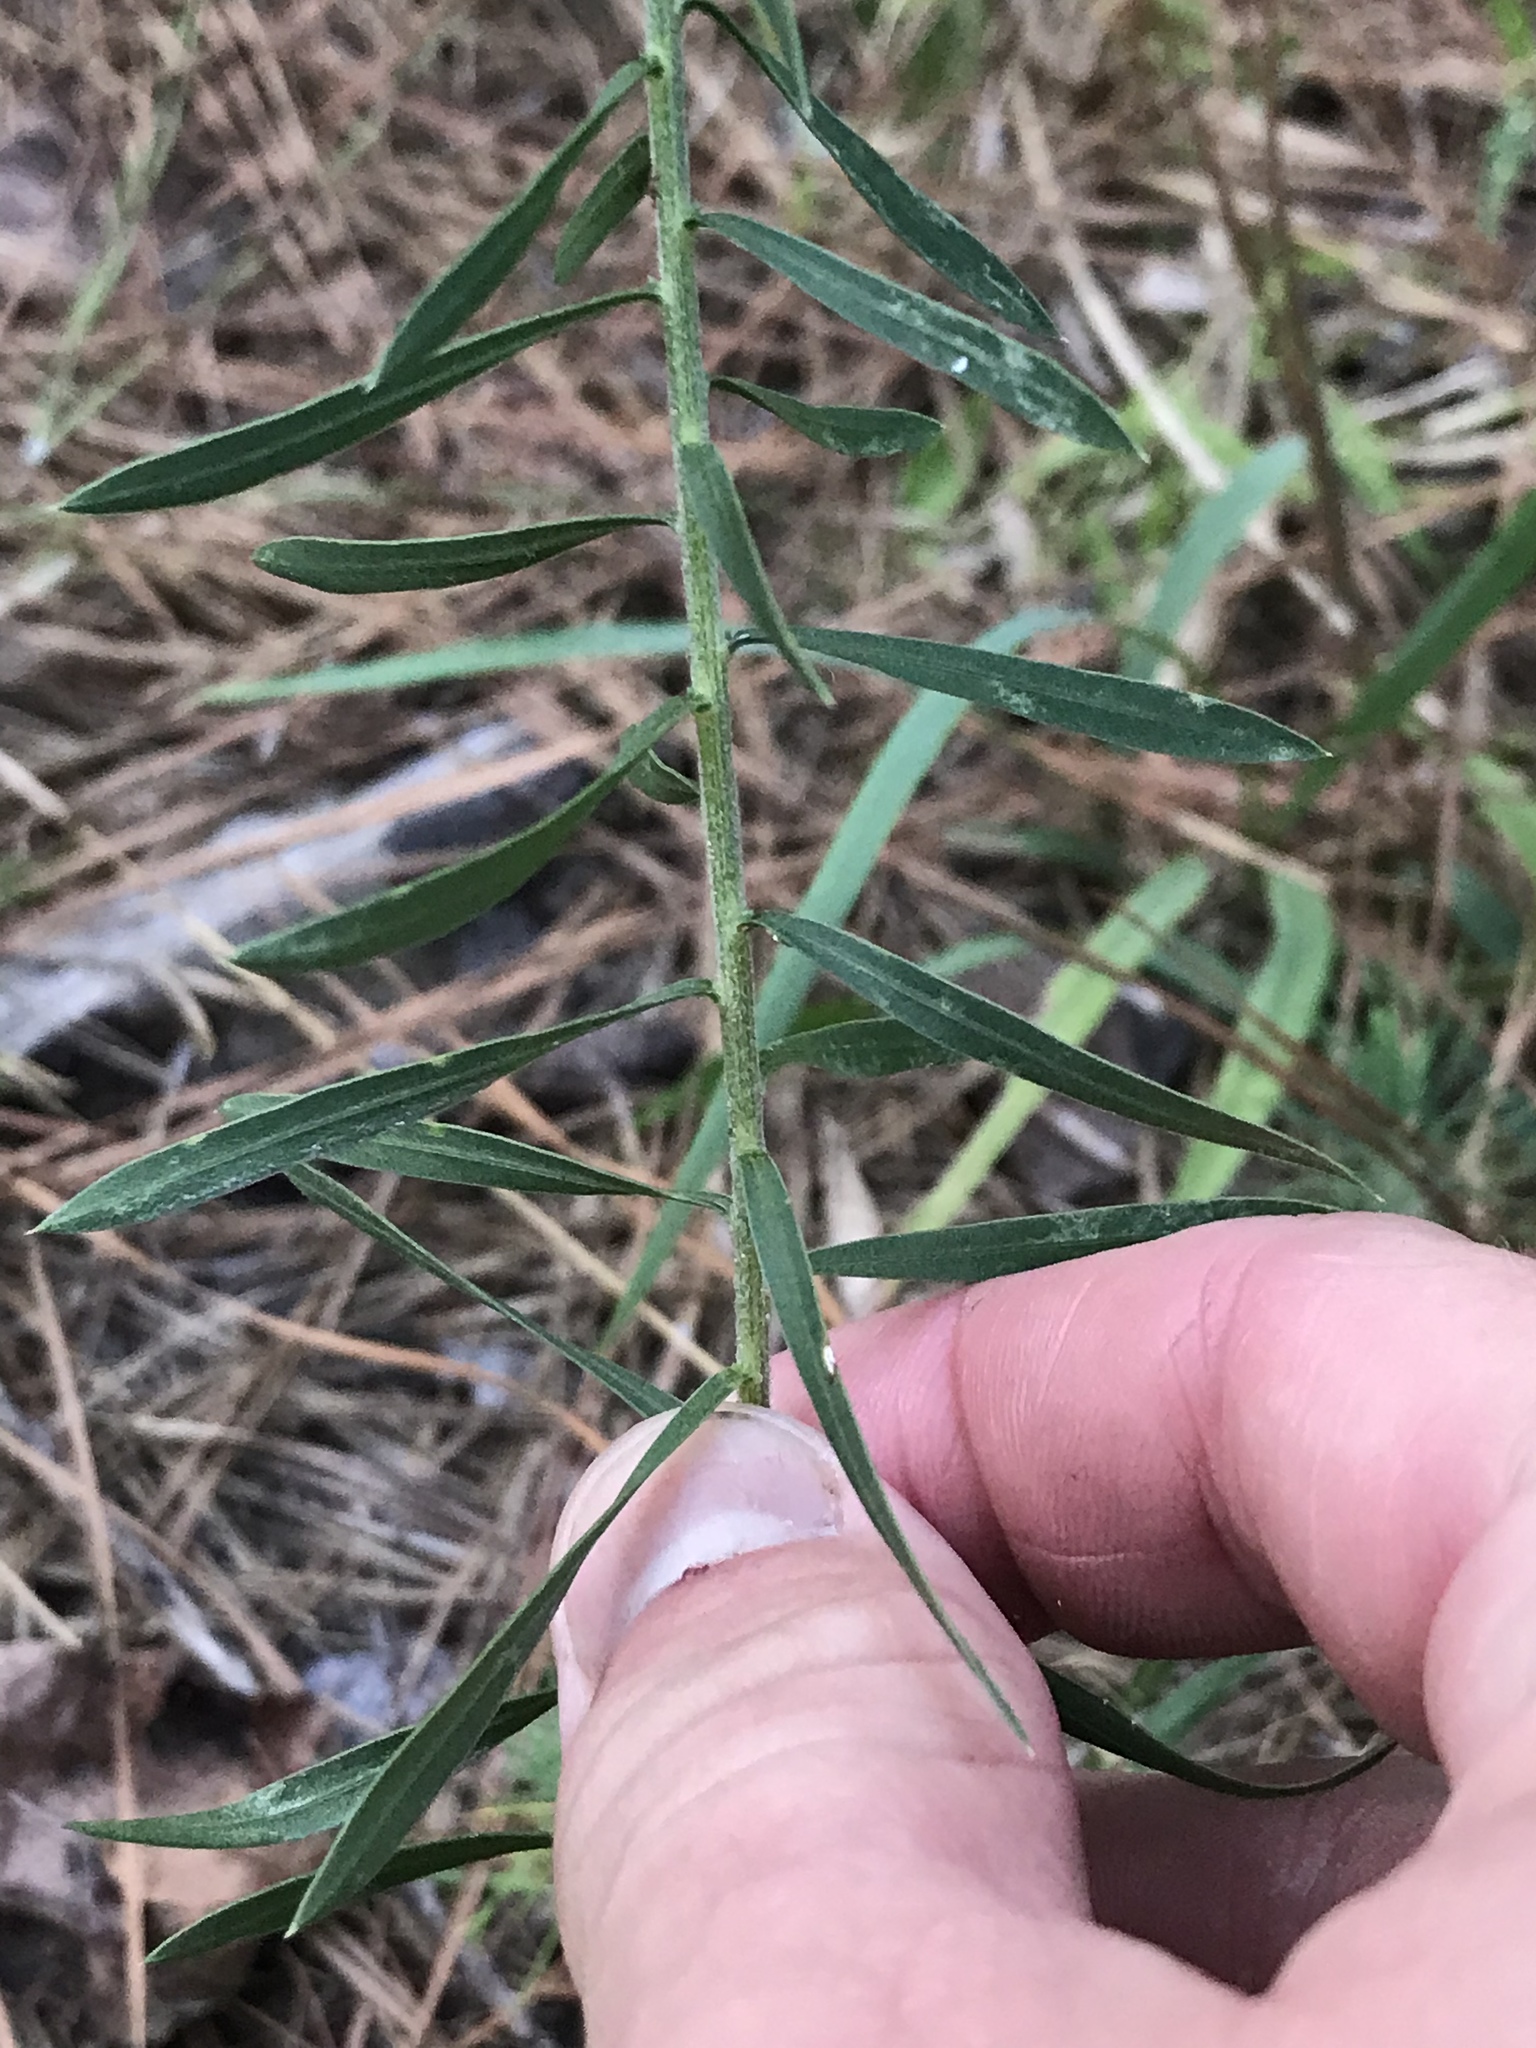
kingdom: Plantae
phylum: Tracheophyta
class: Magnoliopsida
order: Asterales
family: Asteraceae
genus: Liatris
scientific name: Liatris bridgesii
